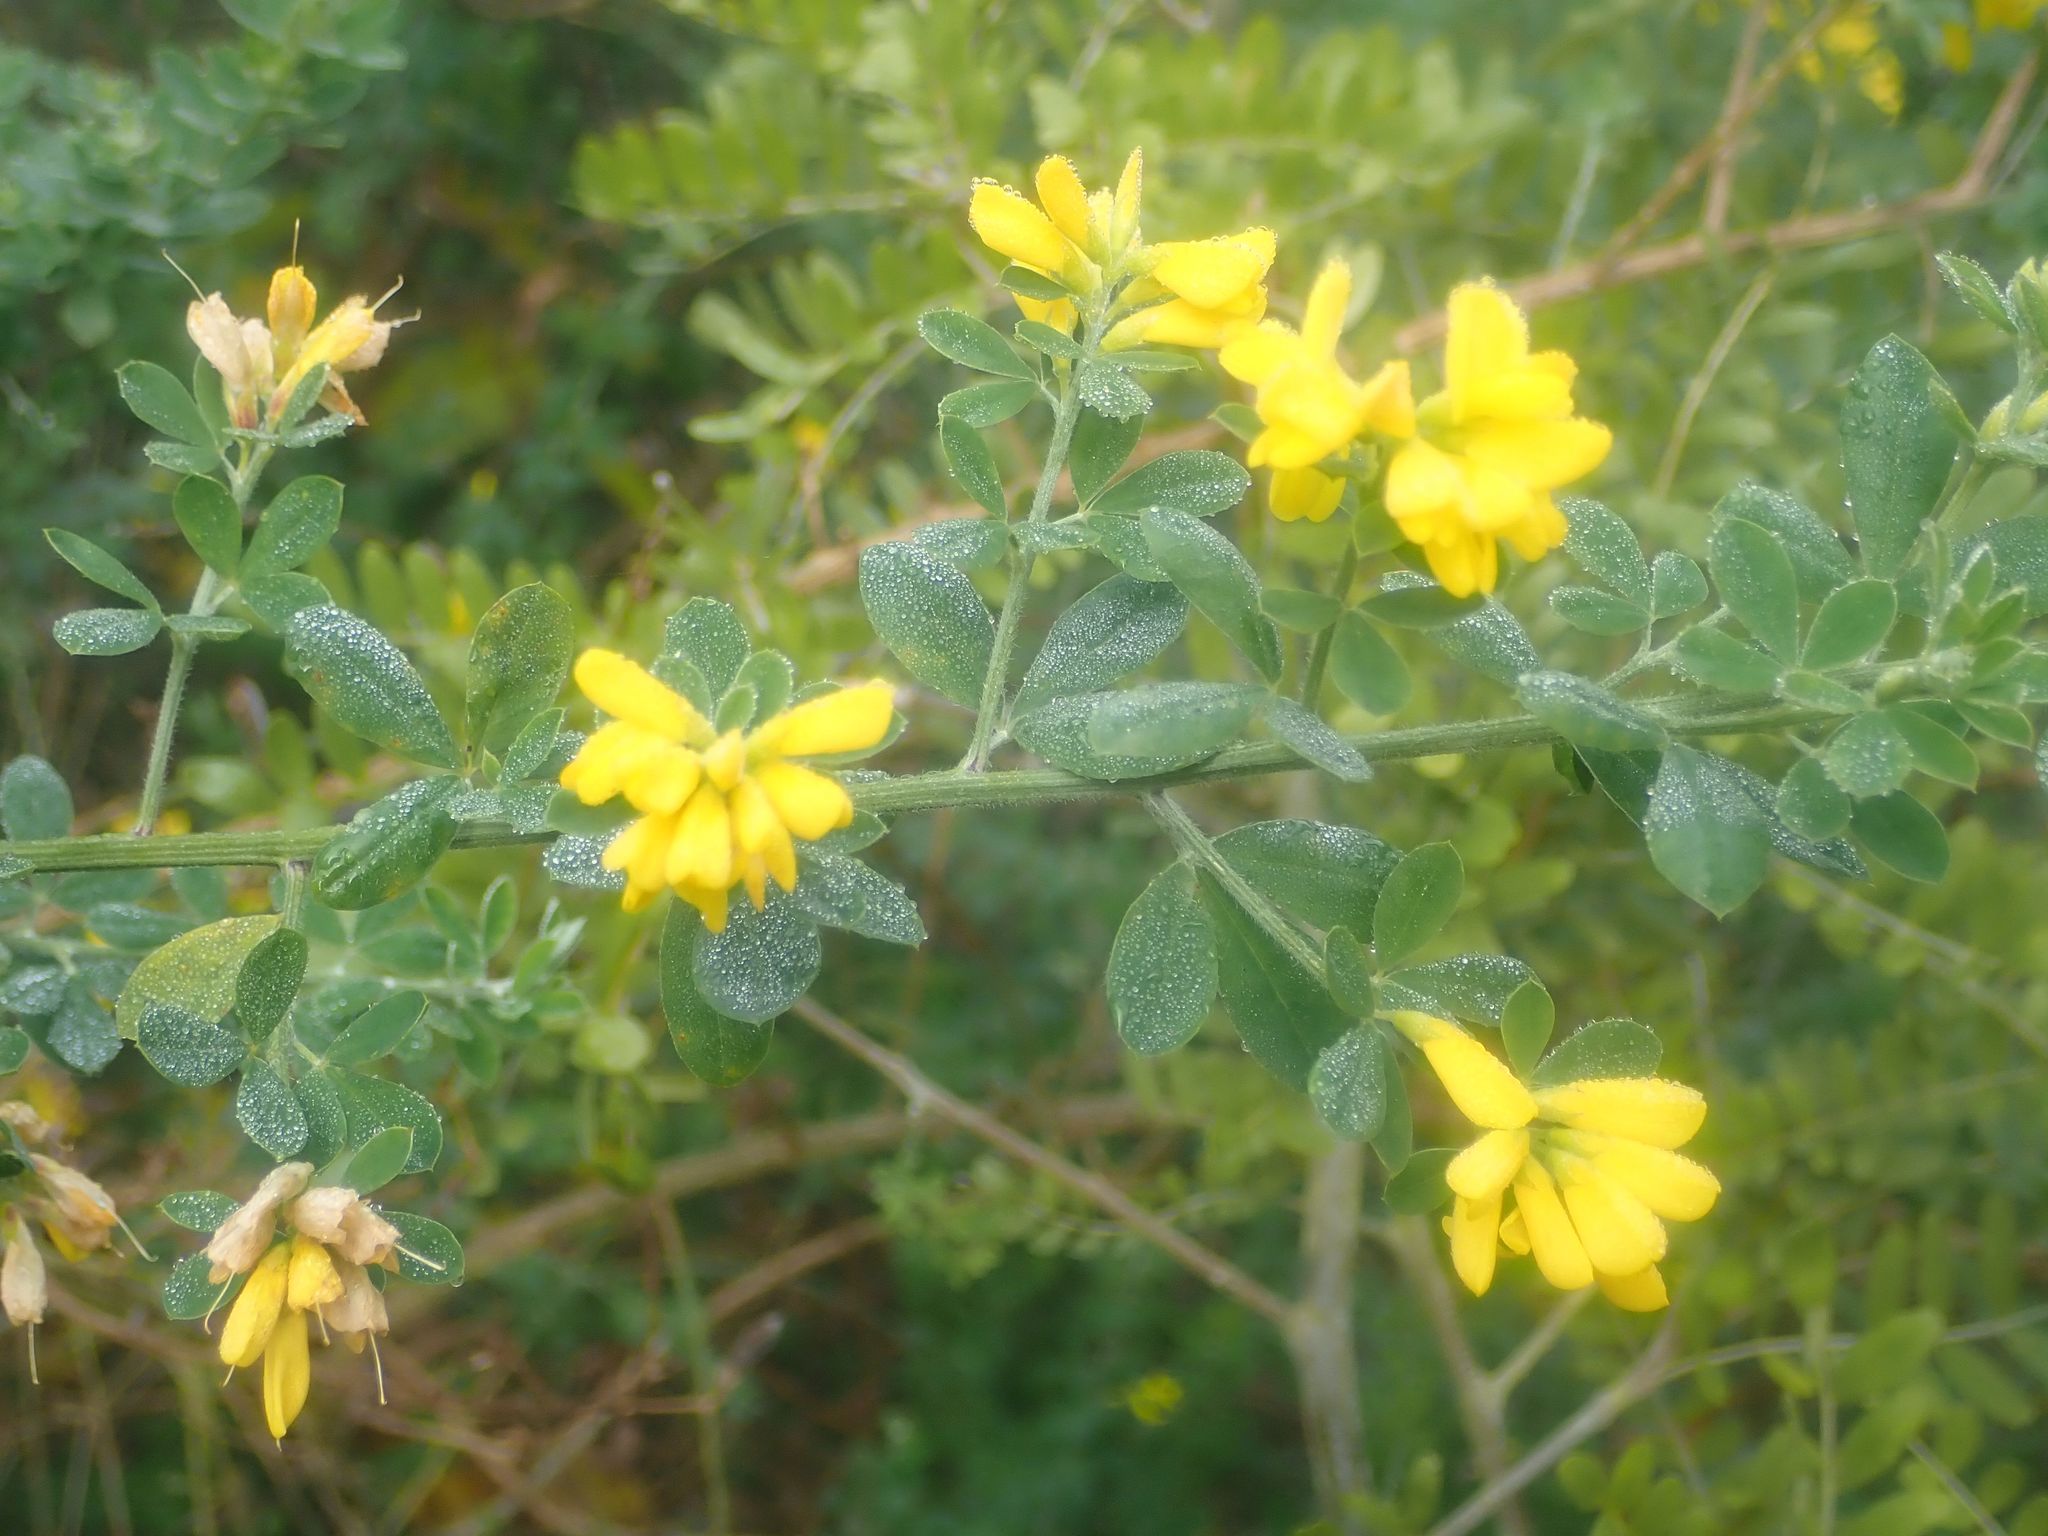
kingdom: Plantae
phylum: Tracheophyta
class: Magnoliopsida
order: Fabales
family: Fabaceae
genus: Genista
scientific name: Genista monspessulana
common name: Montpellier broom
